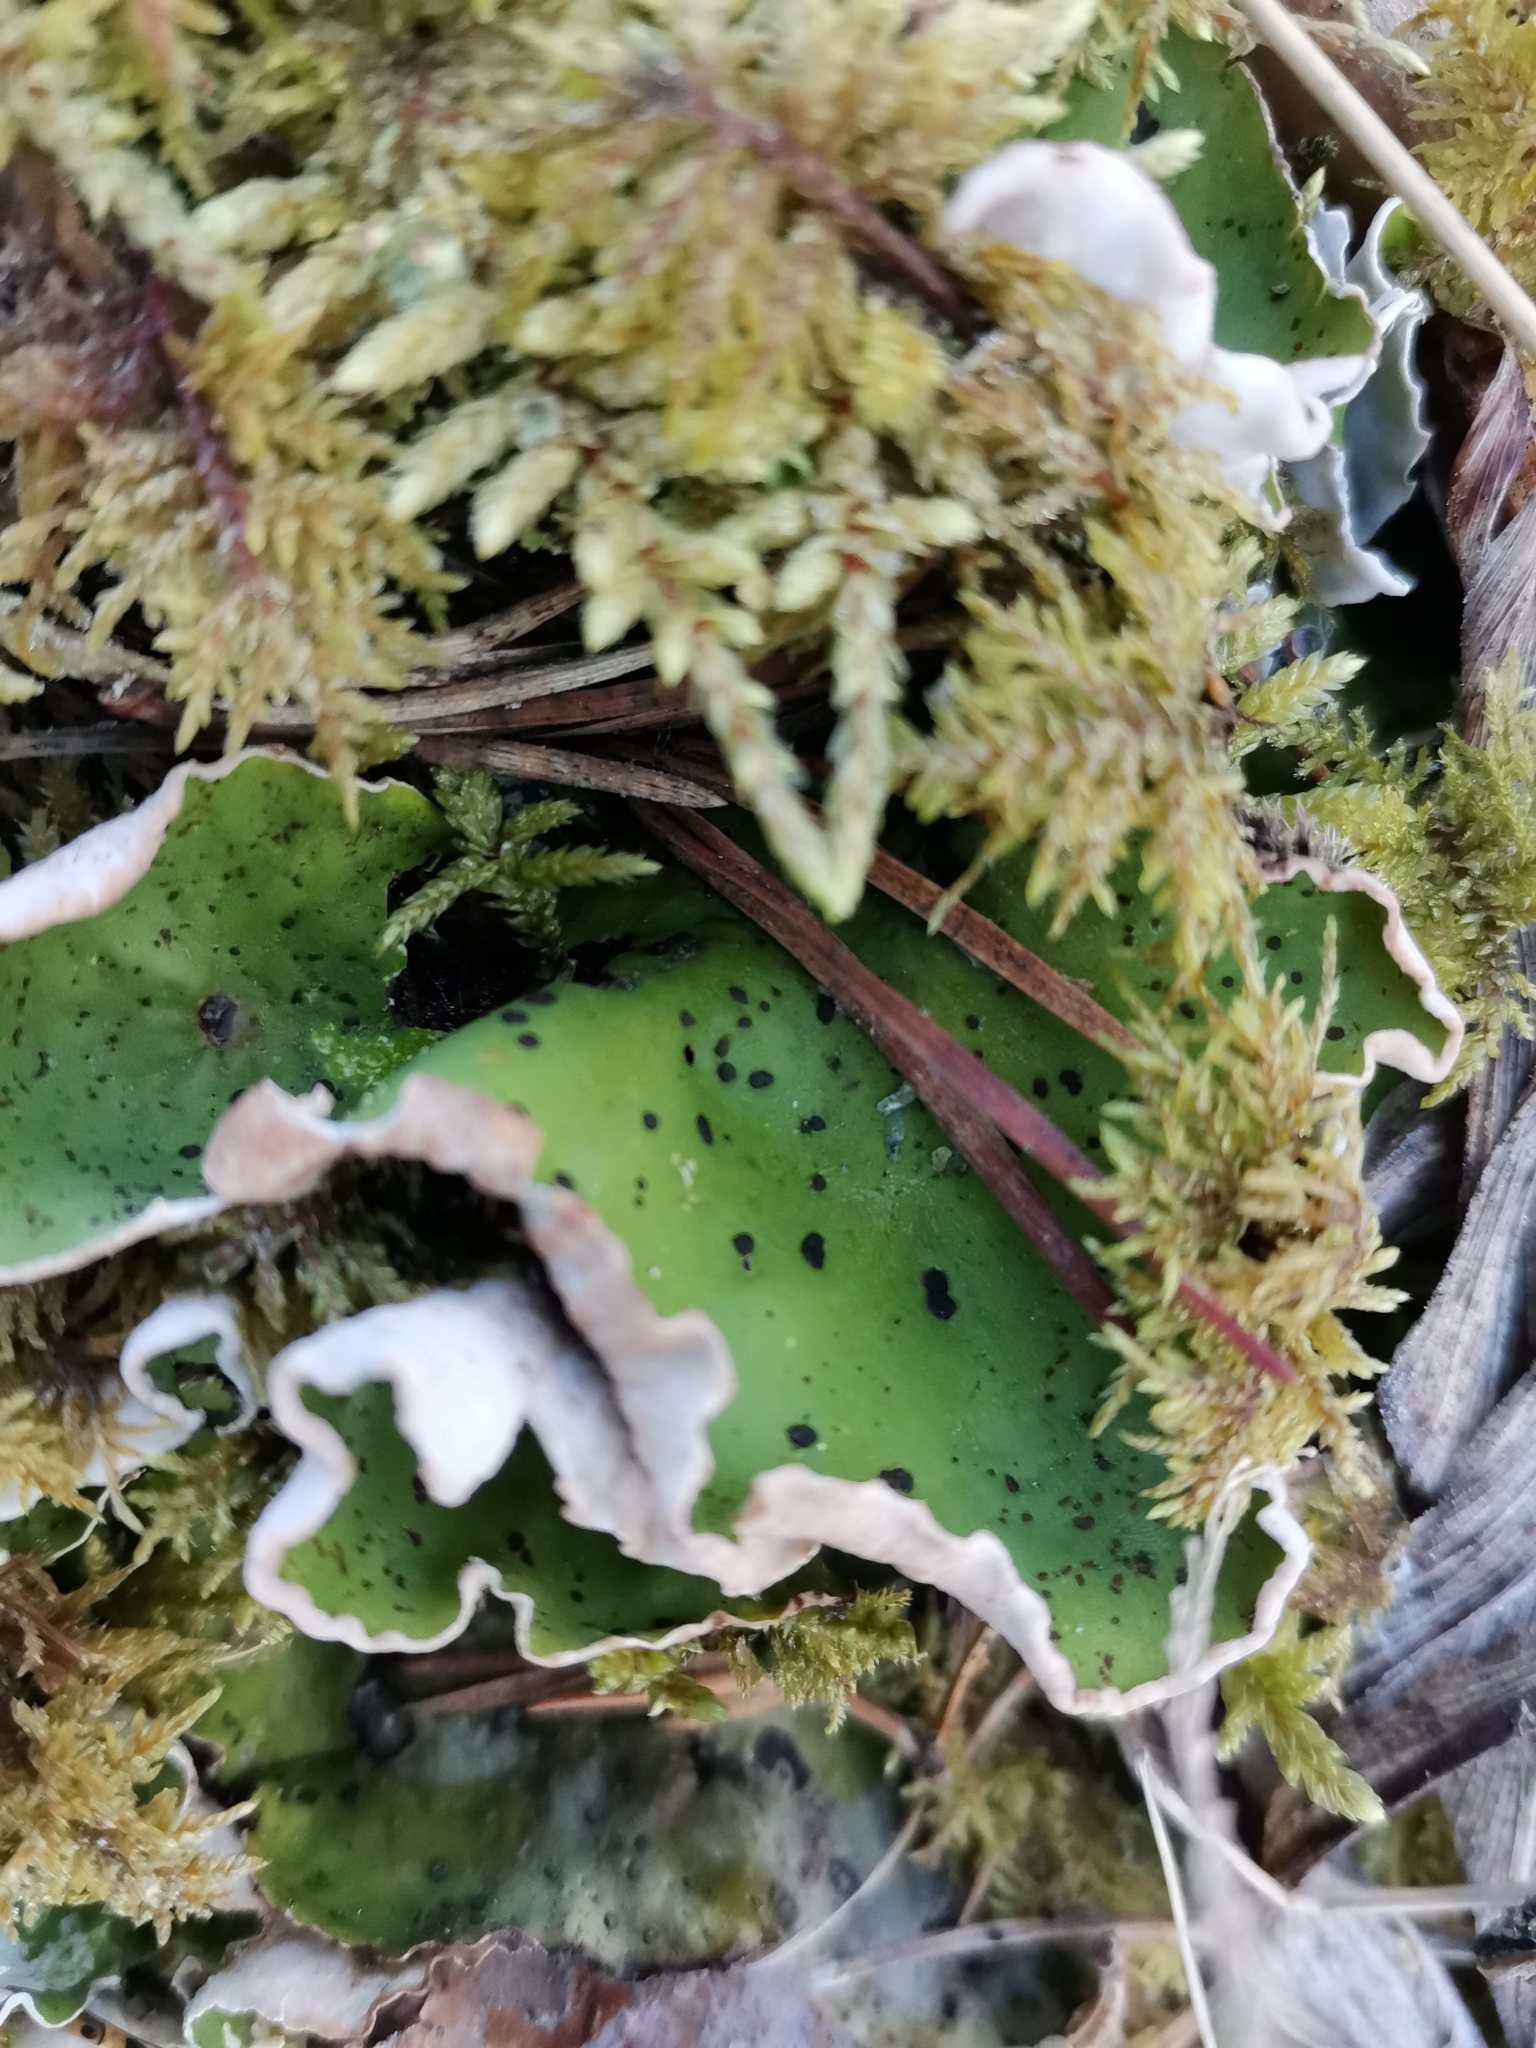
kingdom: Fungi
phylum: Ascomycota
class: Lecanoromycetes
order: Peltigerales
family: Peltigeraceae
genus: Peltigera
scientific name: Peltigera aphthosa
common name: Common freckle pelt lichen
